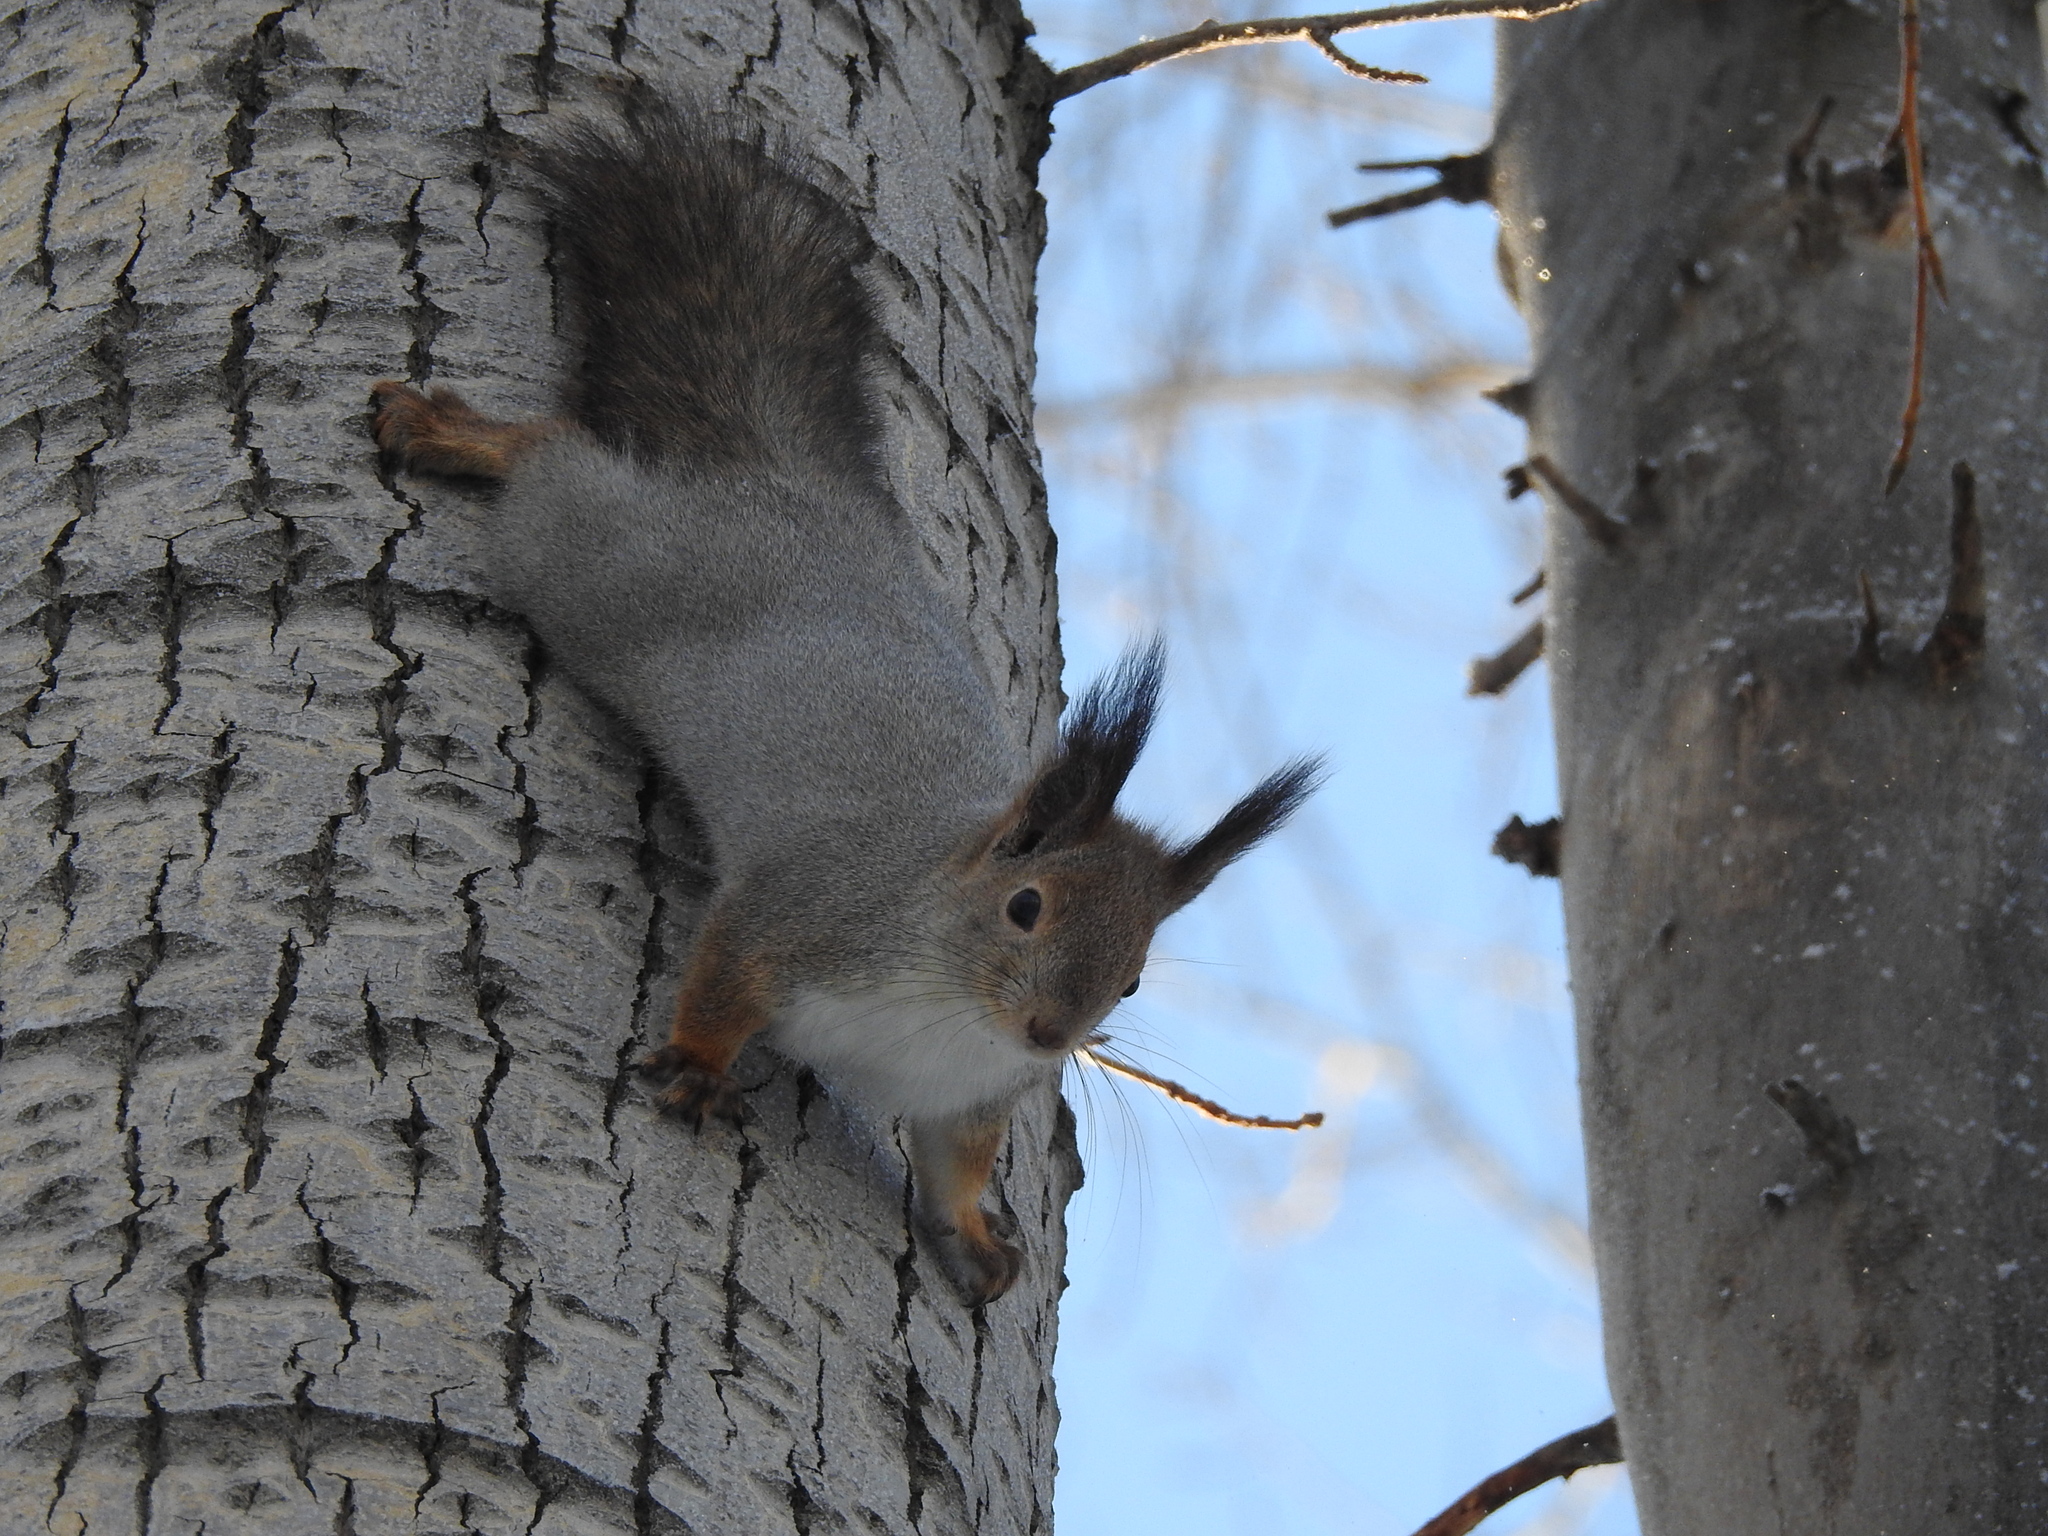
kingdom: Animalia
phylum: Chordata
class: Mammalia
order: Rodentia
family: Sciuridae
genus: Sciurus
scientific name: Sciurus vulgaris
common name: Eurasian red squirrel
